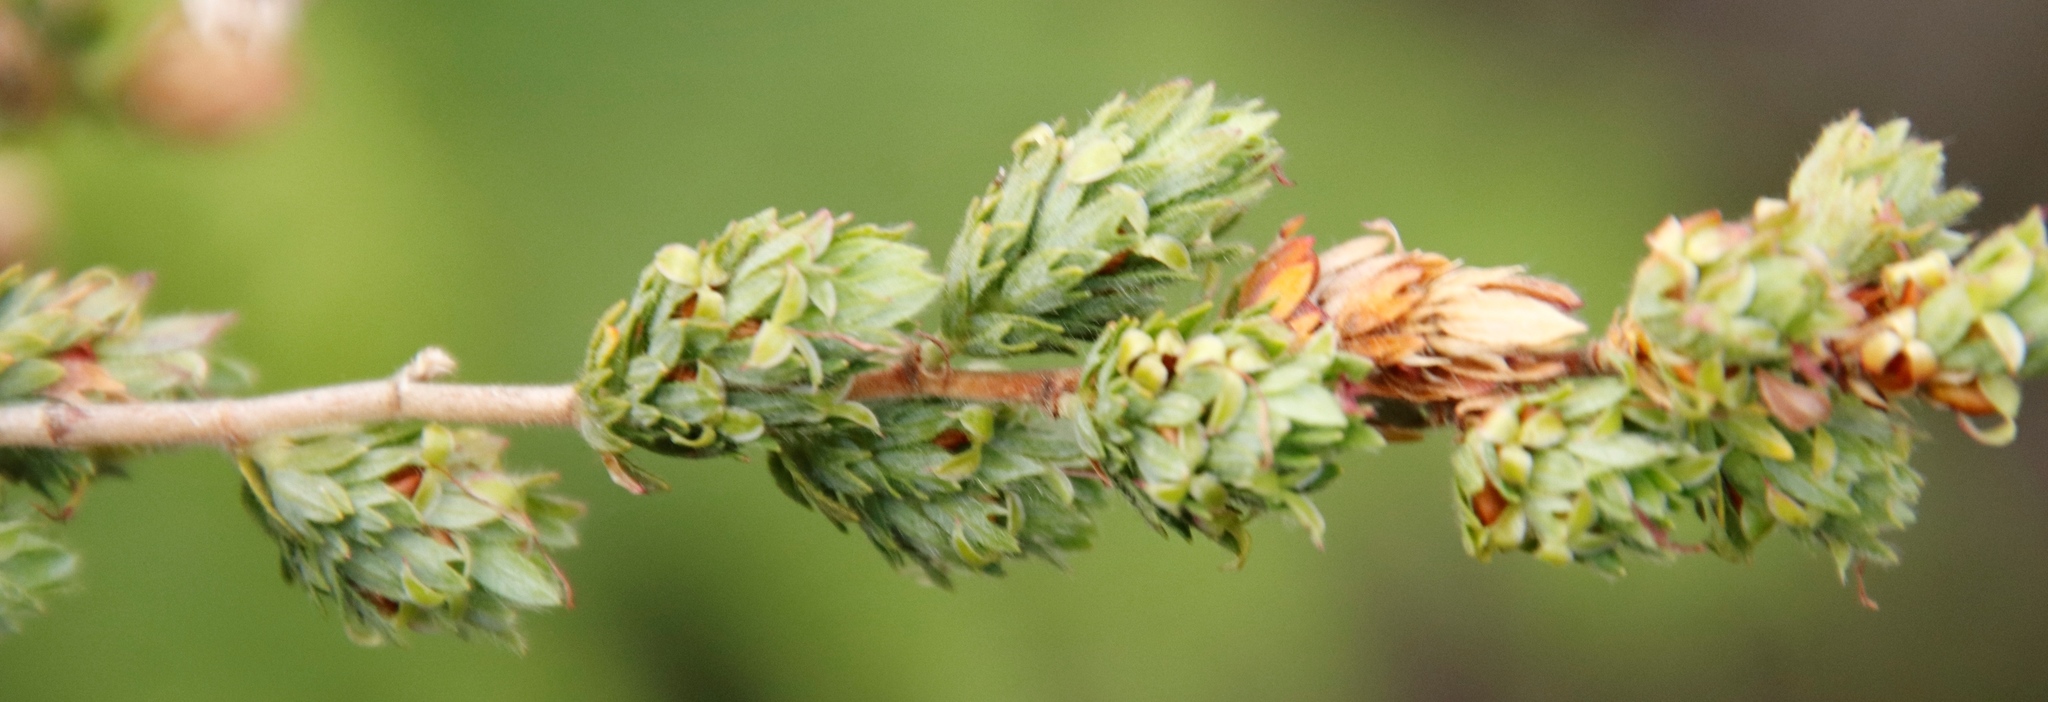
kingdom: Plantae
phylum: Tracheophyta
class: Magnoliopsida
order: Rosales
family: Rosaceae
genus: Cliffortia
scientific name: Cliffortia polygonifolia
